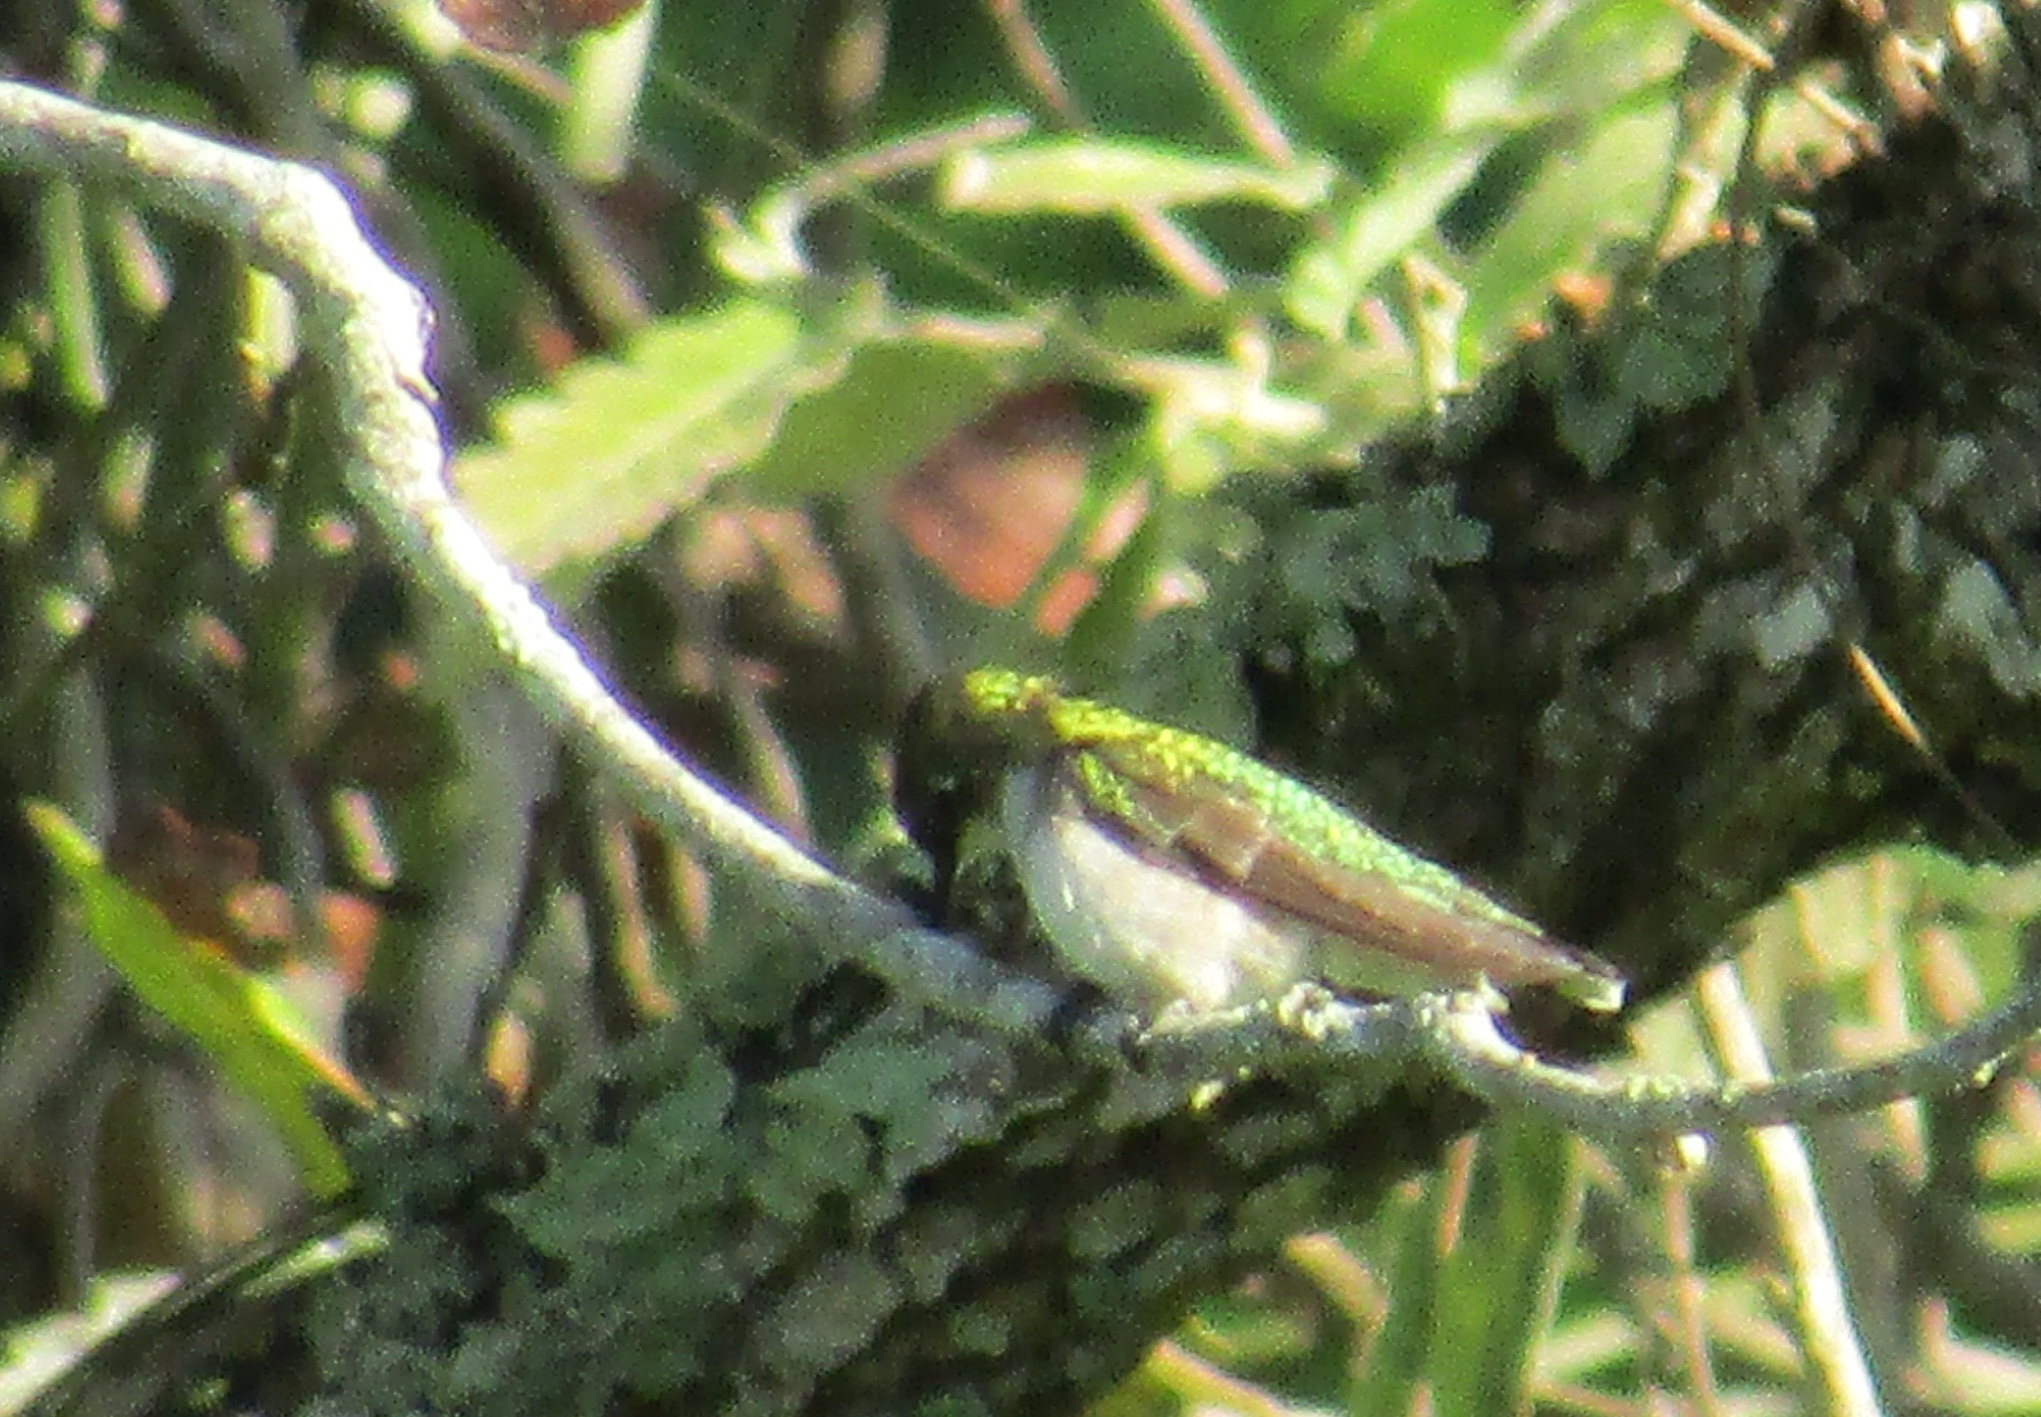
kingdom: Animalia
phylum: Chordata
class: Aves
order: Apodiformes
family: Trochilidae
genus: Archilochus
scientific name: Archilochus colubris
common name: Ruby-throated hummingbird
